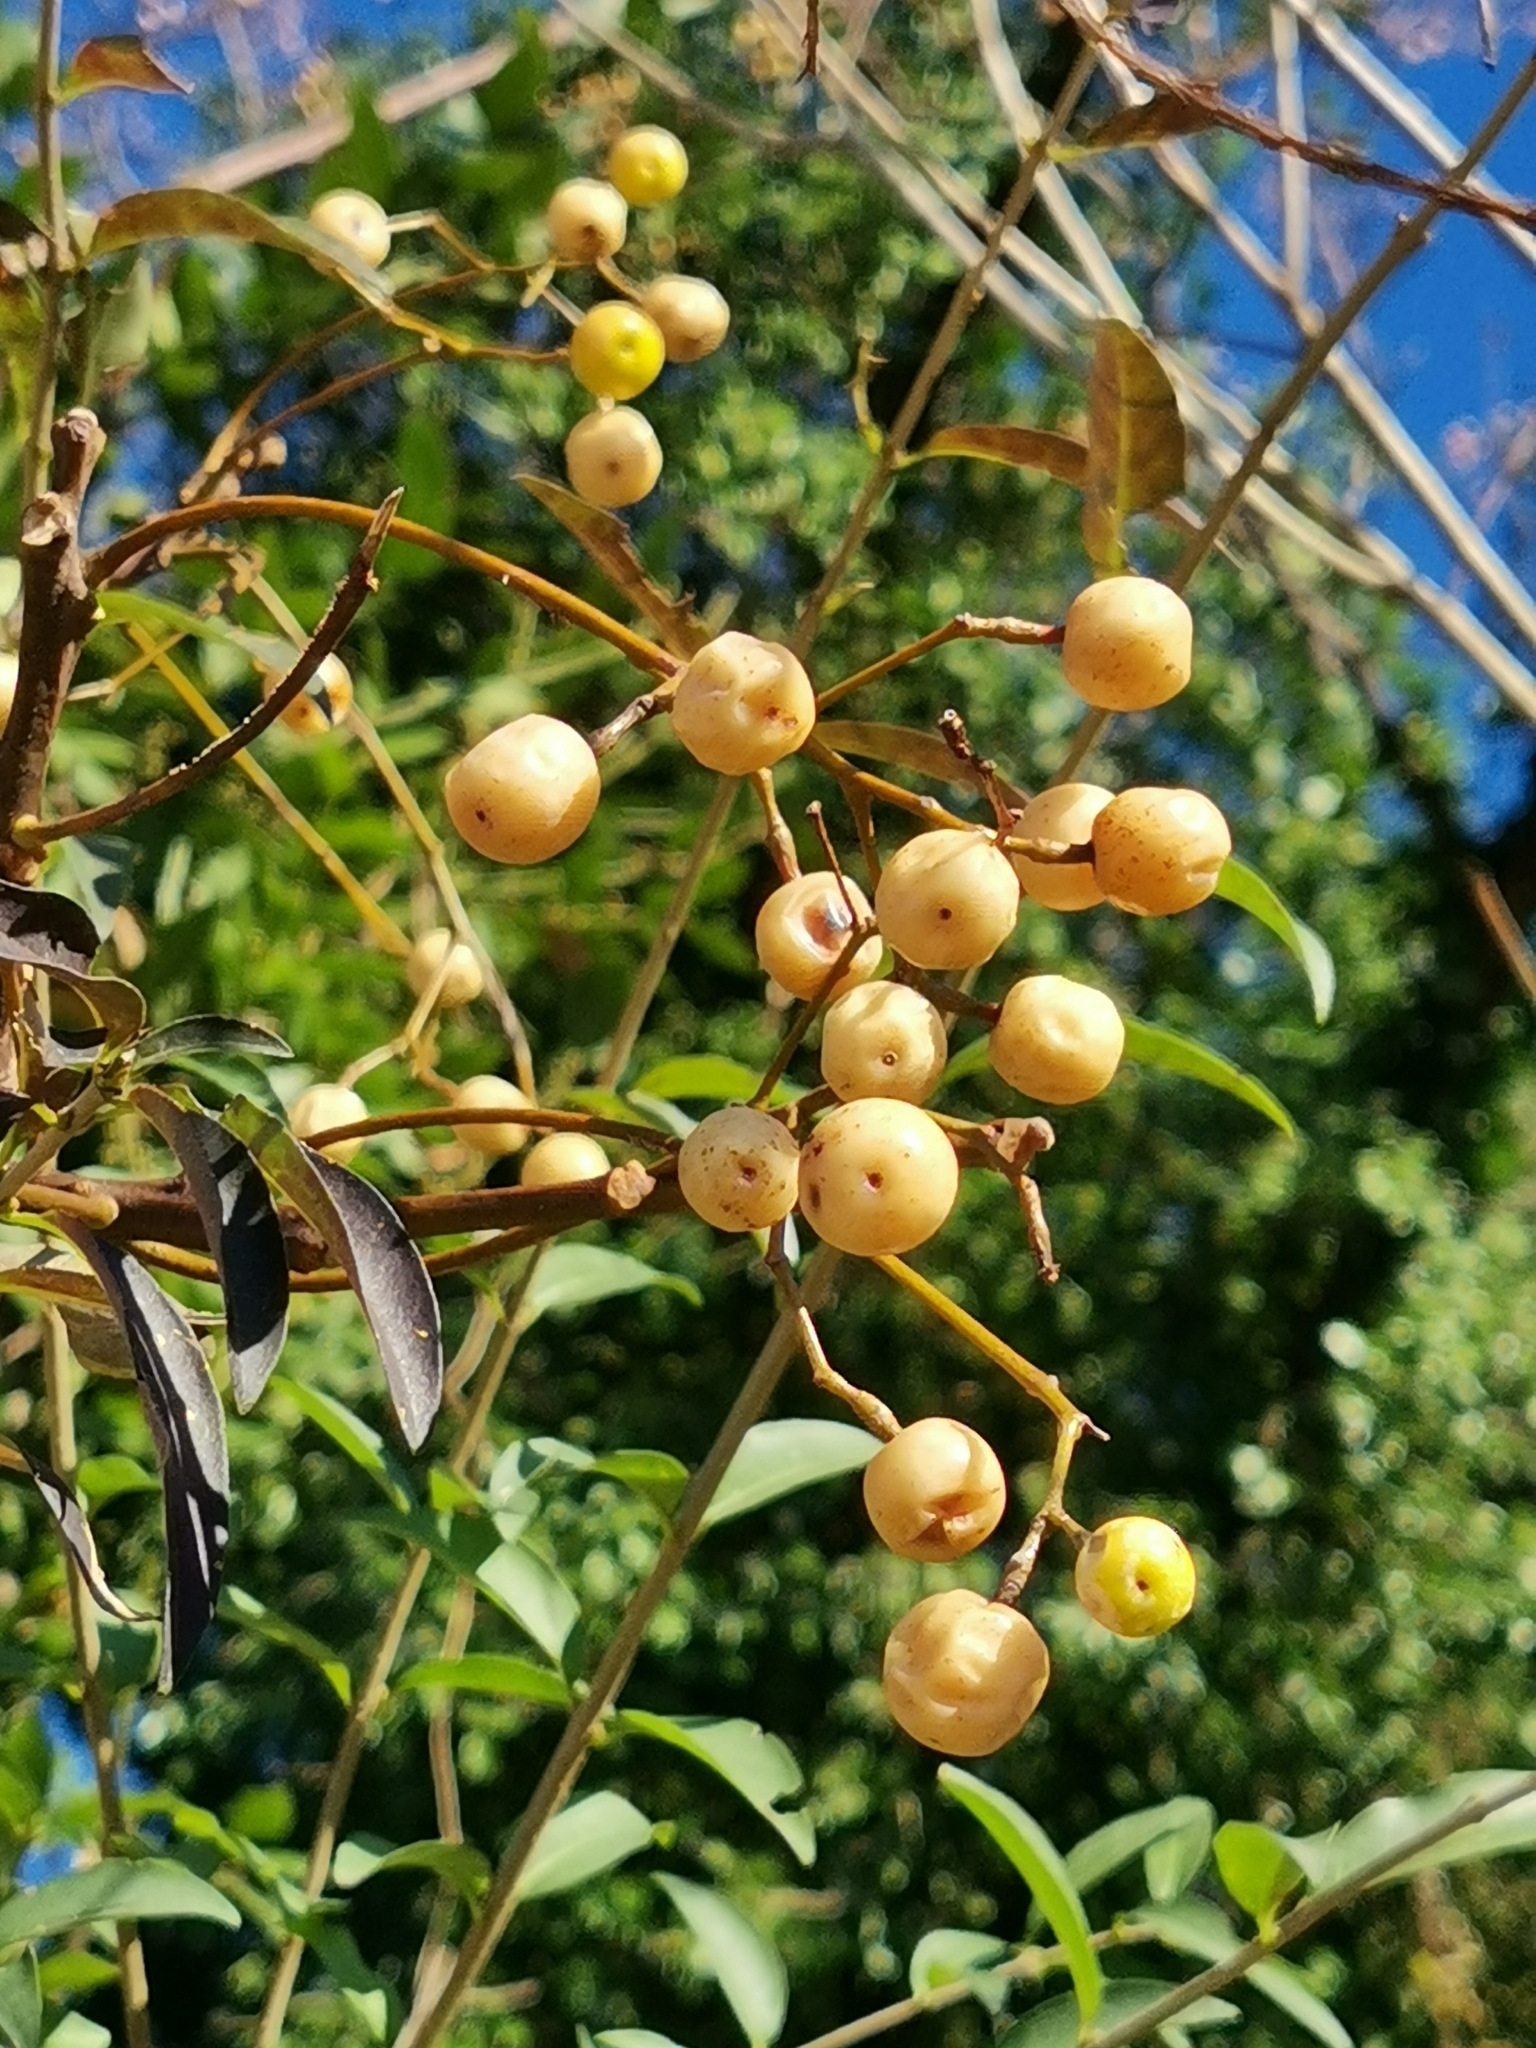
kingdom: Plantae
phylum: Tracheophyta
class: Magnoliopsida
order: Sapindales
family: Meliaceae
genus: Melia
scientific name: Melia azedarach
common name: Chinaberrytree
